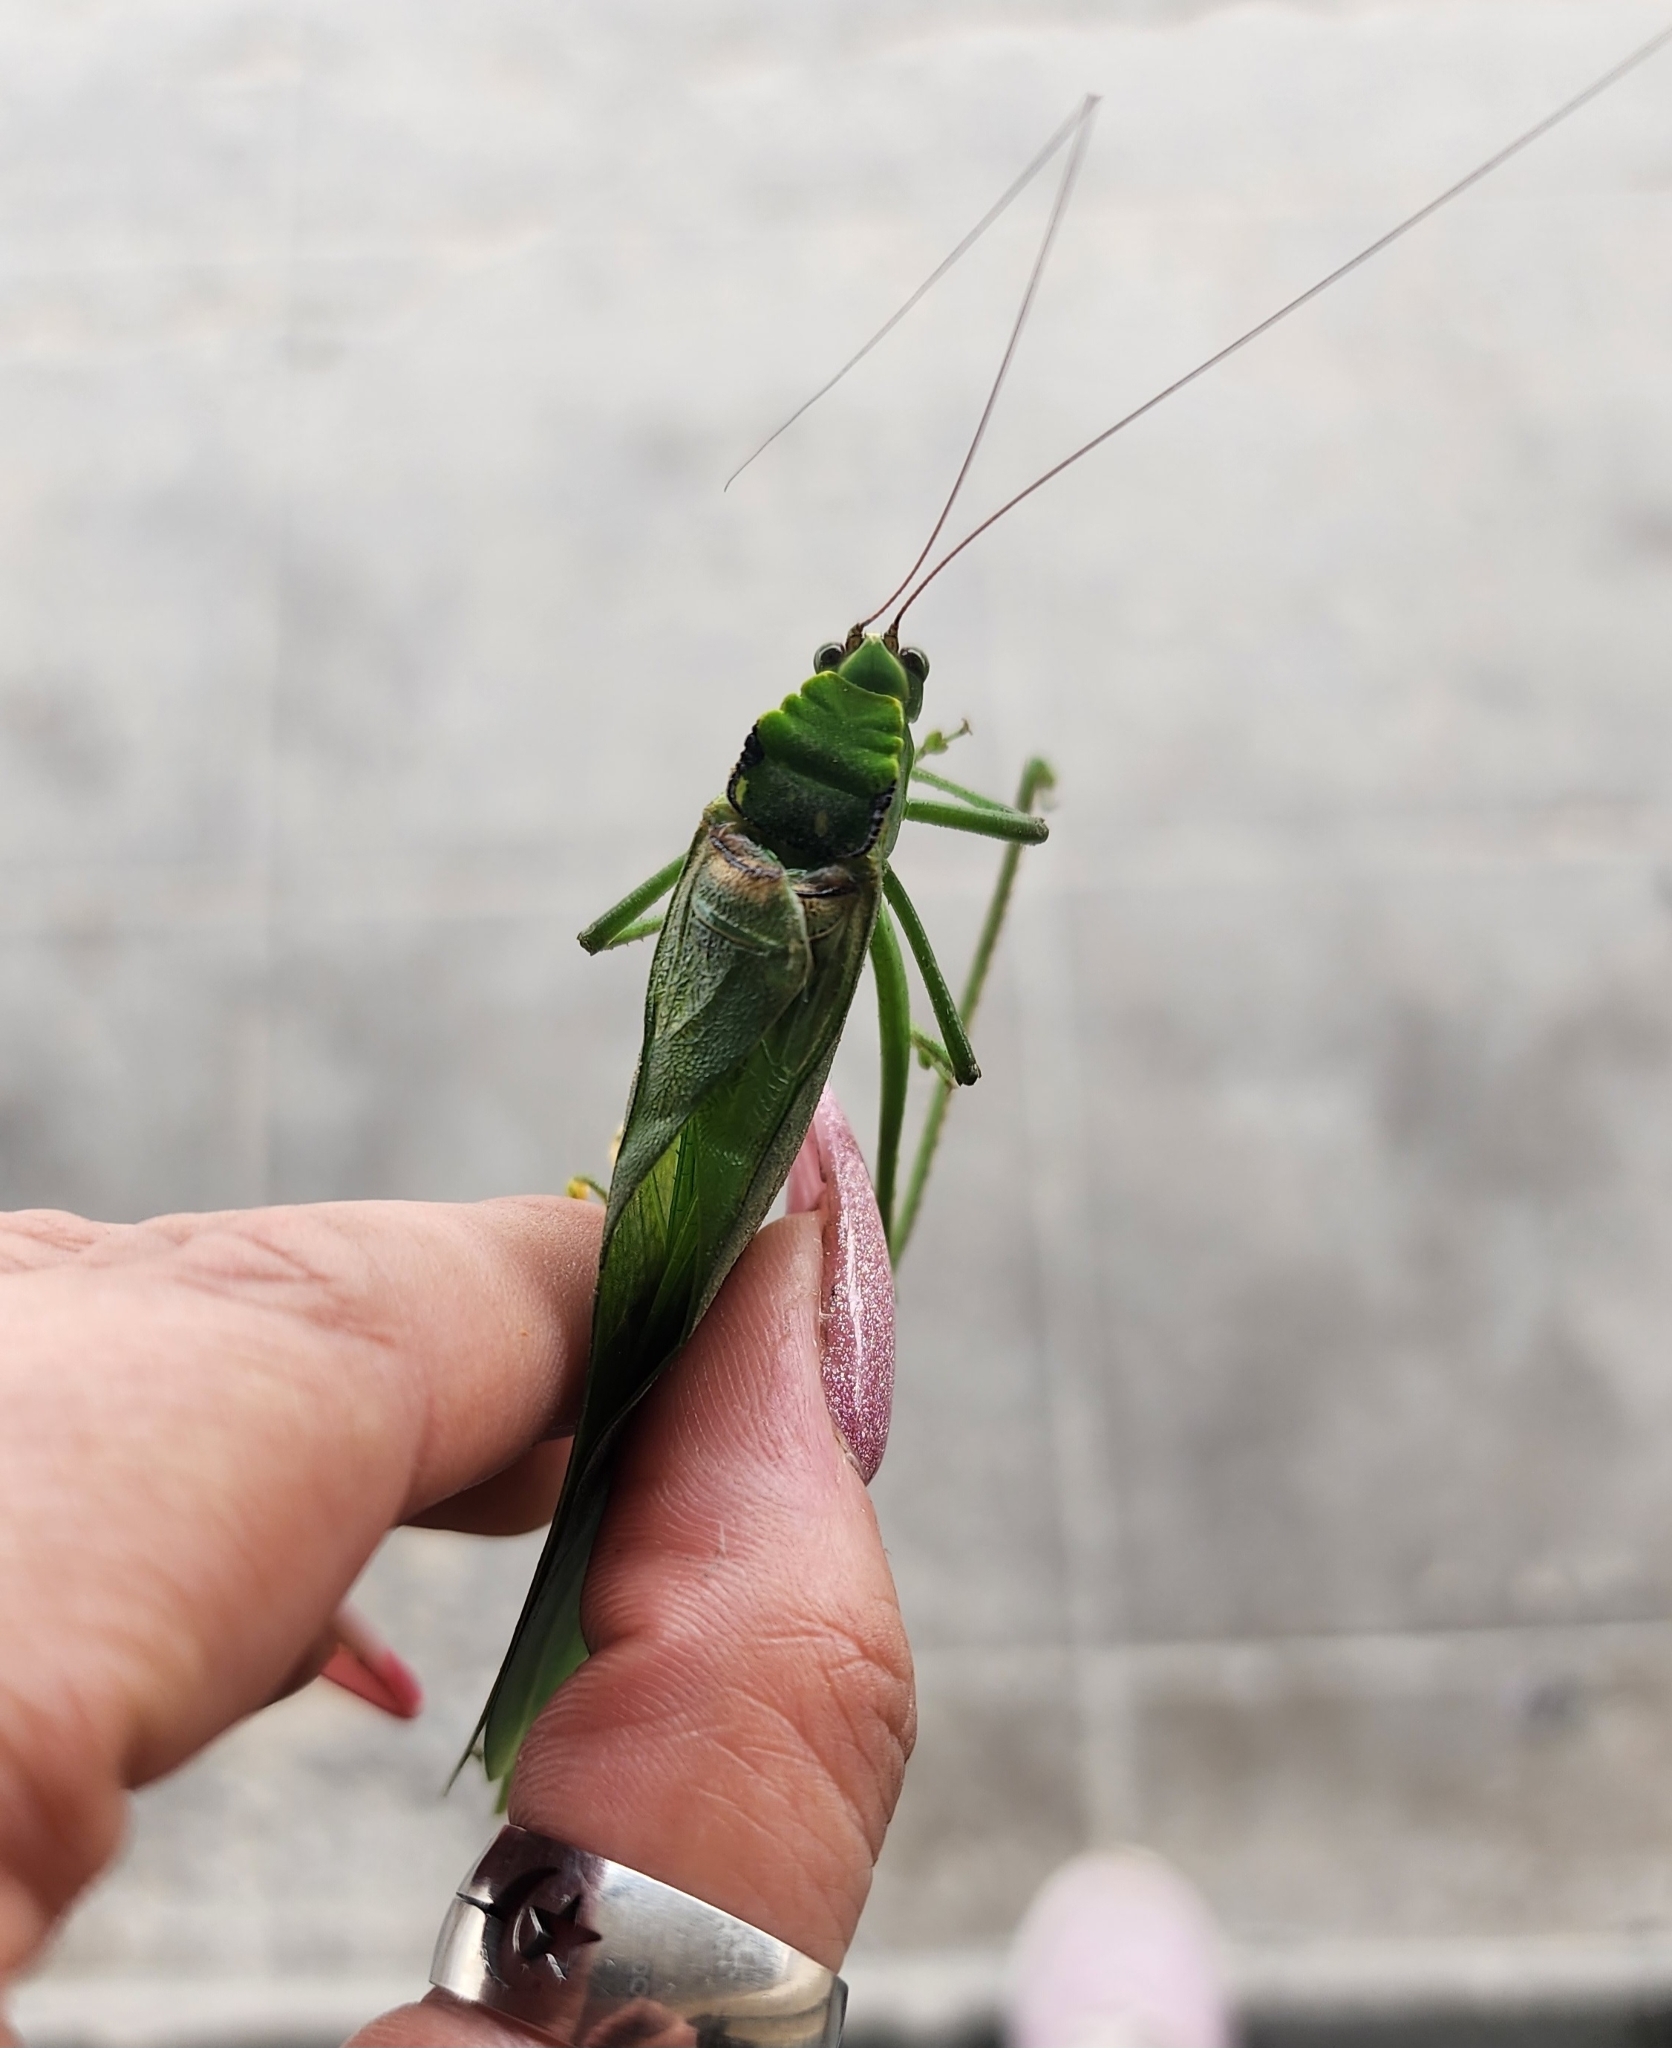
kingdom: Animalia
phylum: Arthropoda
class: Insecta
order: Orthoptera
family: Tettigoniidae
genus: Stilpnochlora
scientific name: Stilpnochlora incisa
